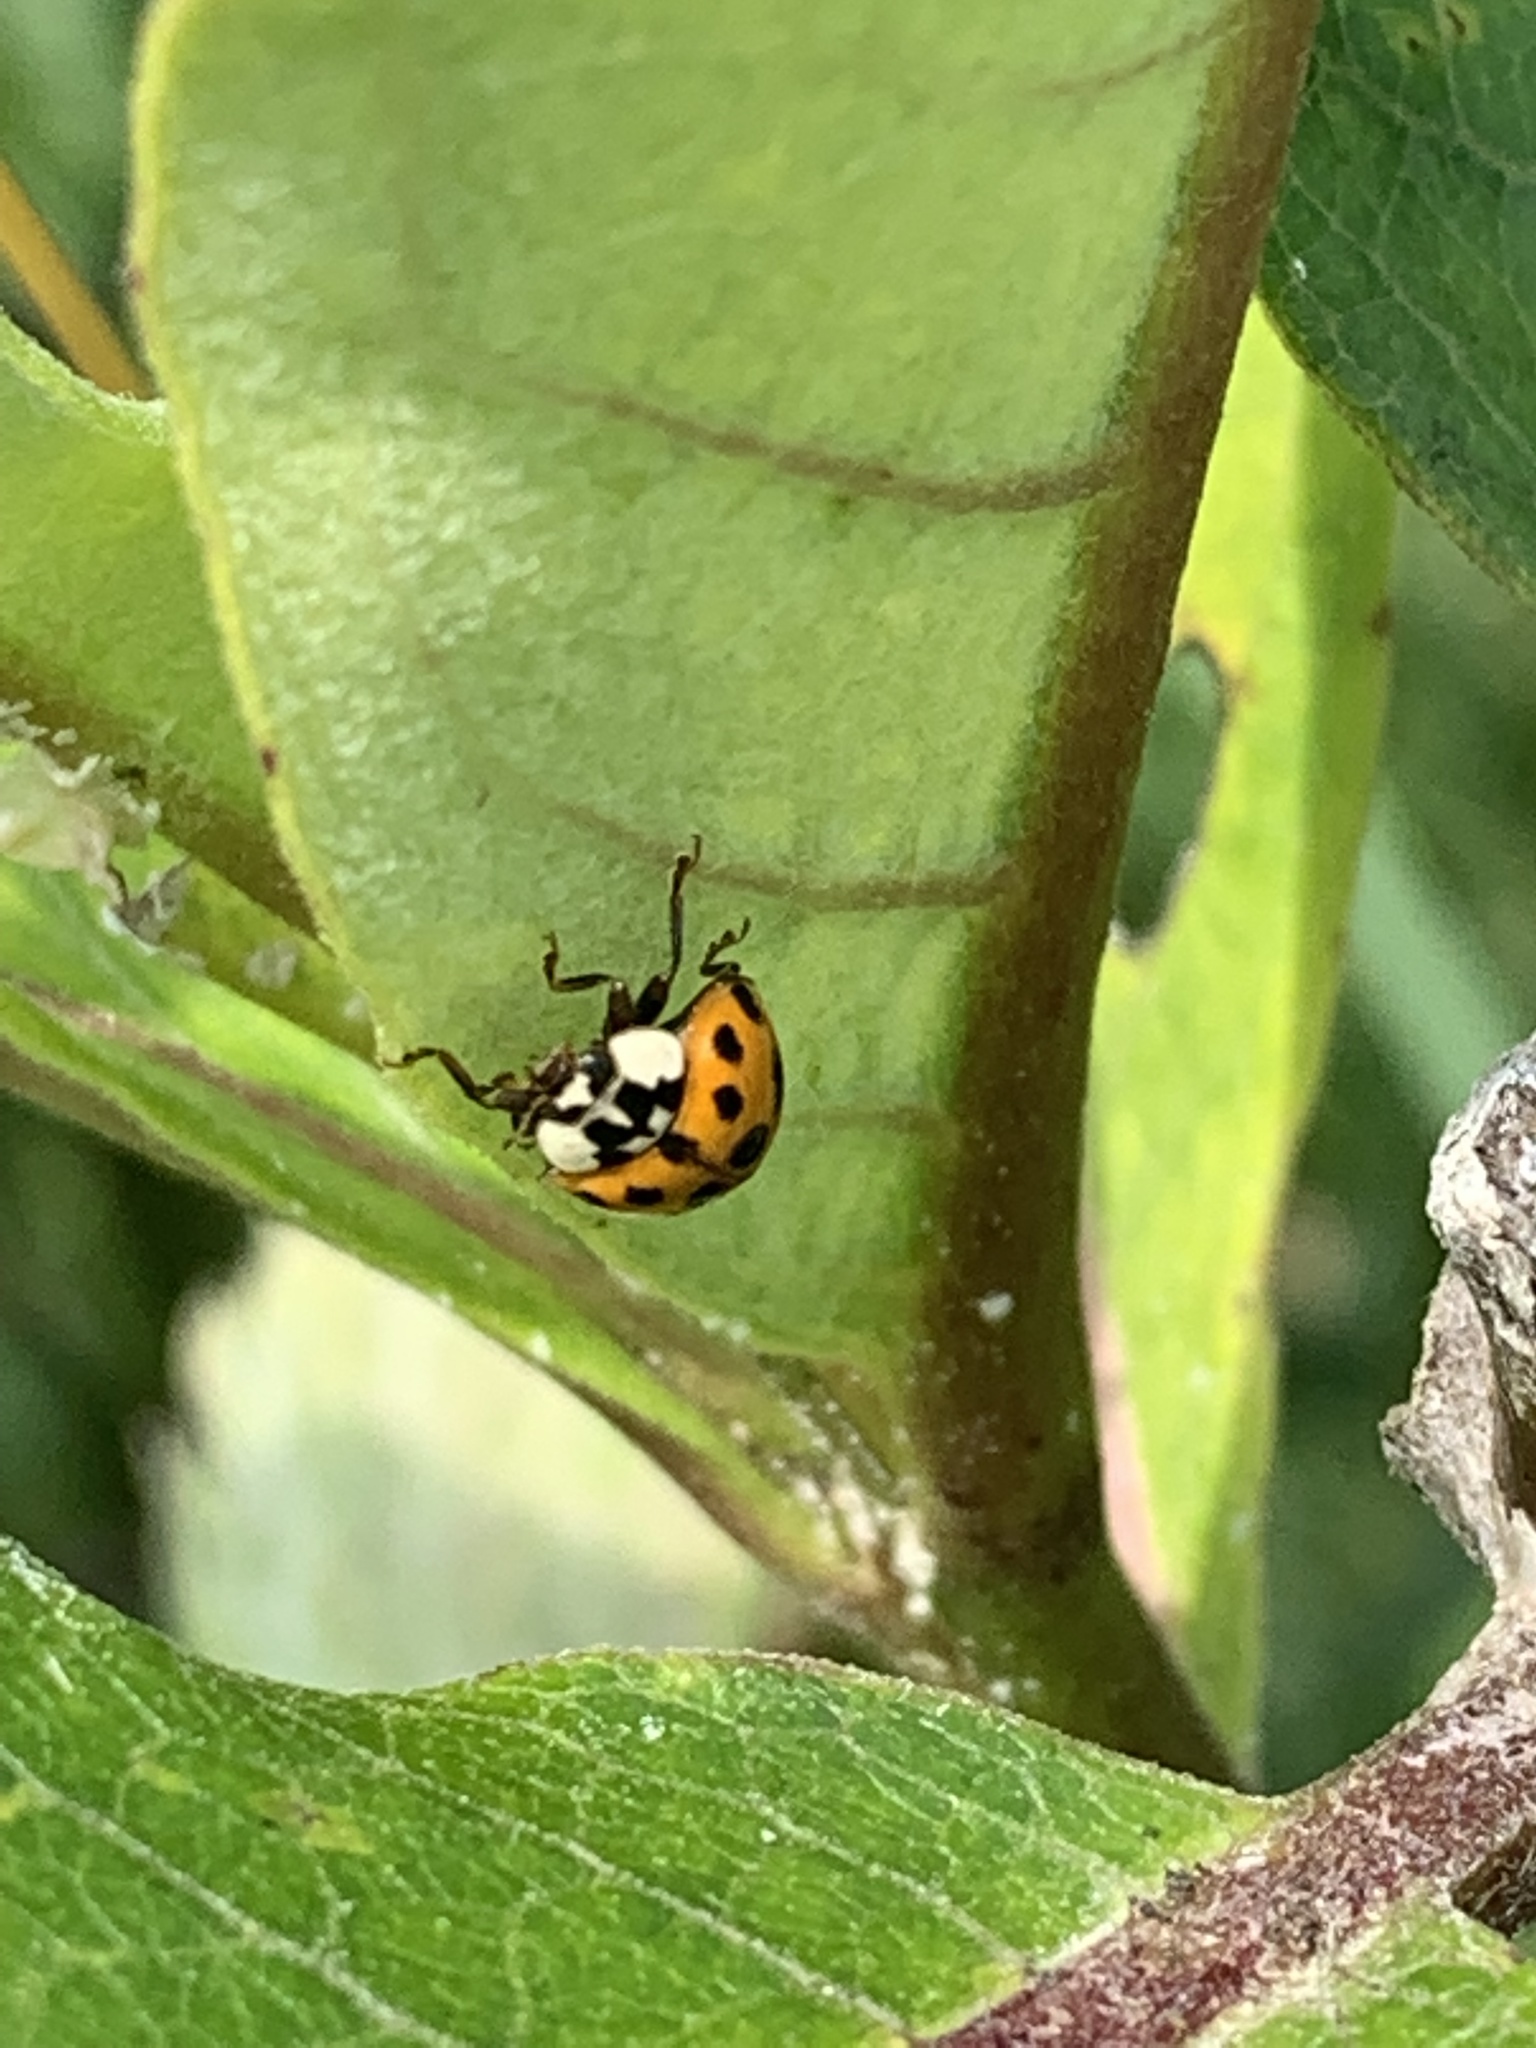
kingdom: Animalia
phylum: Arthropoda
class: Insecta
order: Coleoptera
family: Coccinellidae
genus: Harmonia
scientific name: Harmonia axyridis
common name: Harlequin ladybird
